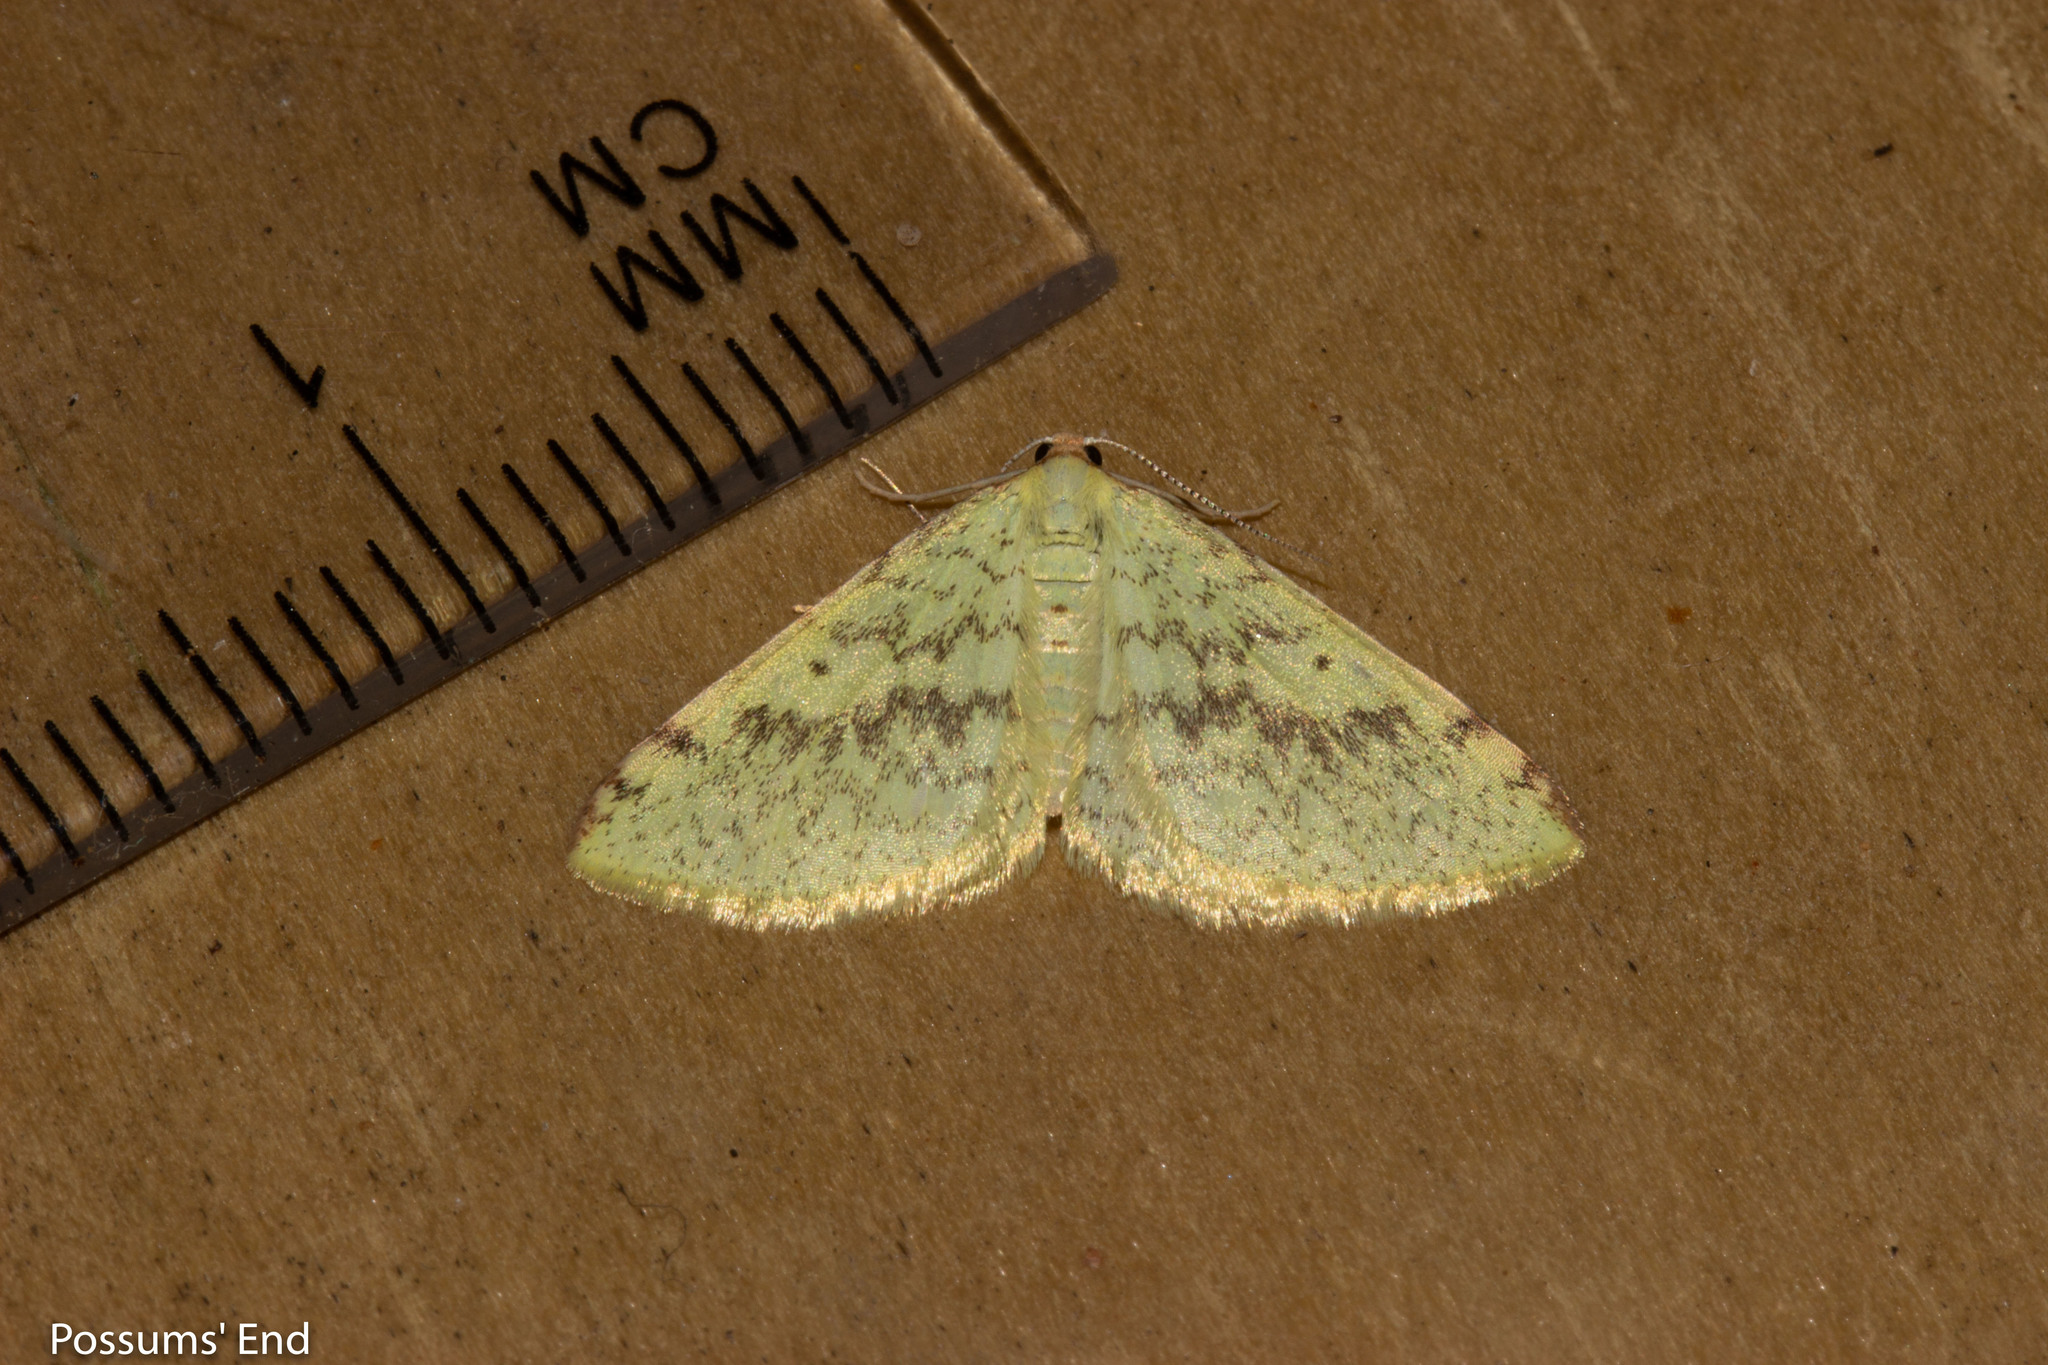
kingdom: Animalia
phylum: Arthropoda
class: Insecta
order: Lepidoptera
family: Geometridae
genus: Epiphryne
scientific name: Epiphryne undosata
